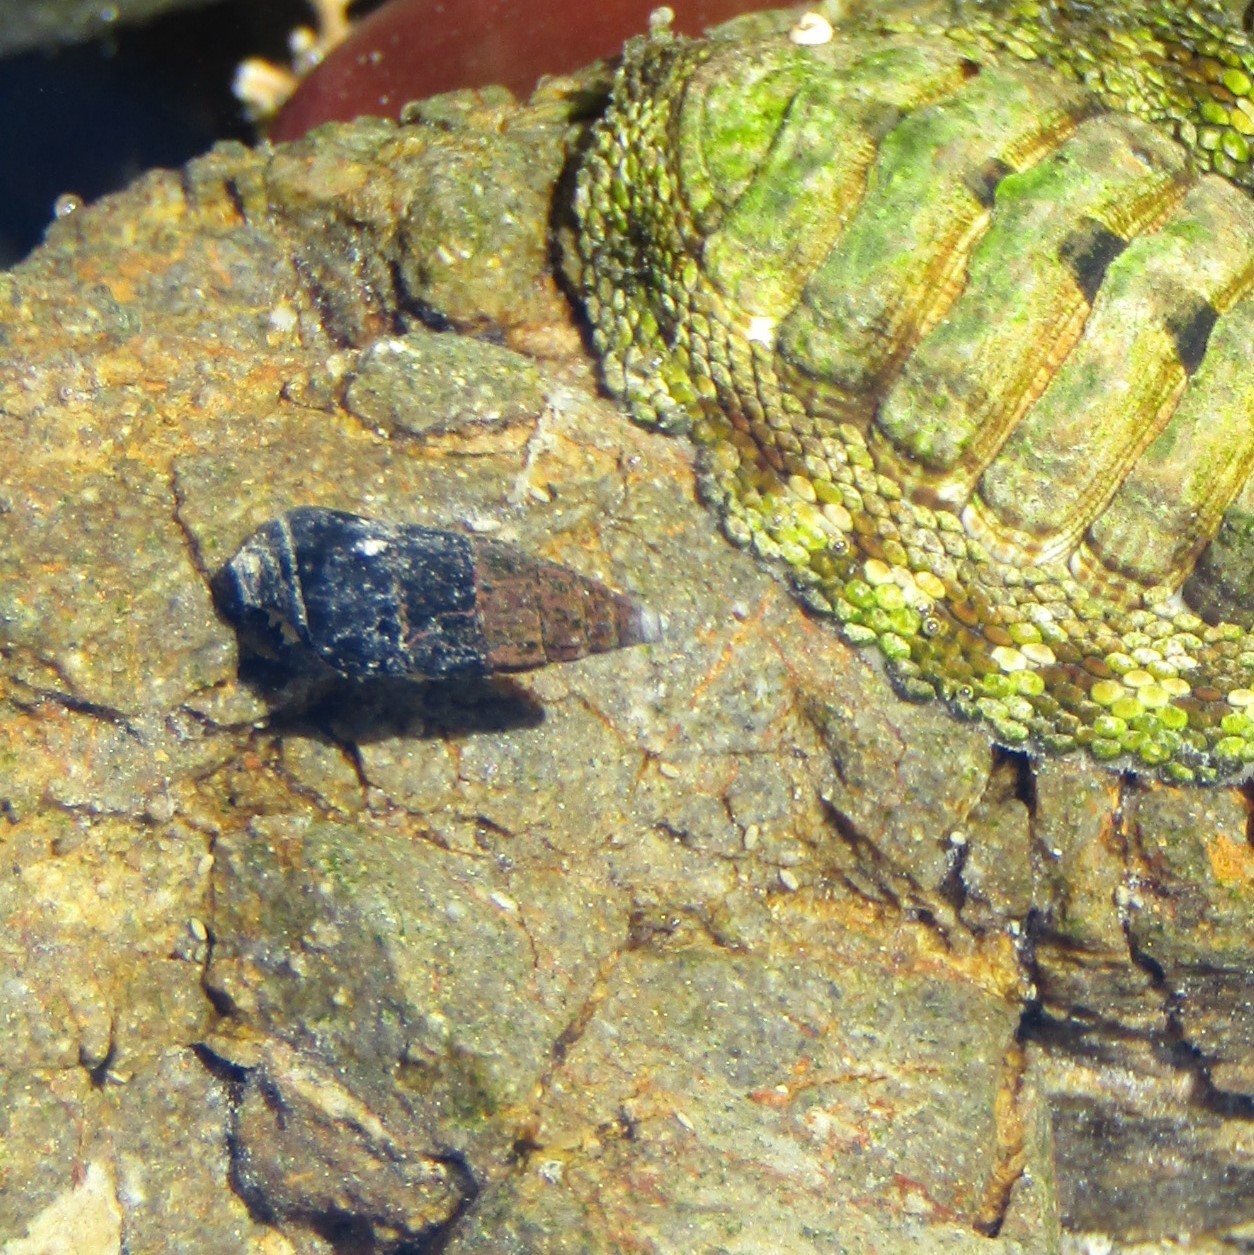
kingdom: Animalia
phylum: Mollusca
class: Gastropoda
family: Batillariidae
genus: Zeacumantus
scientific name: Zeacumantus subcarinatus
